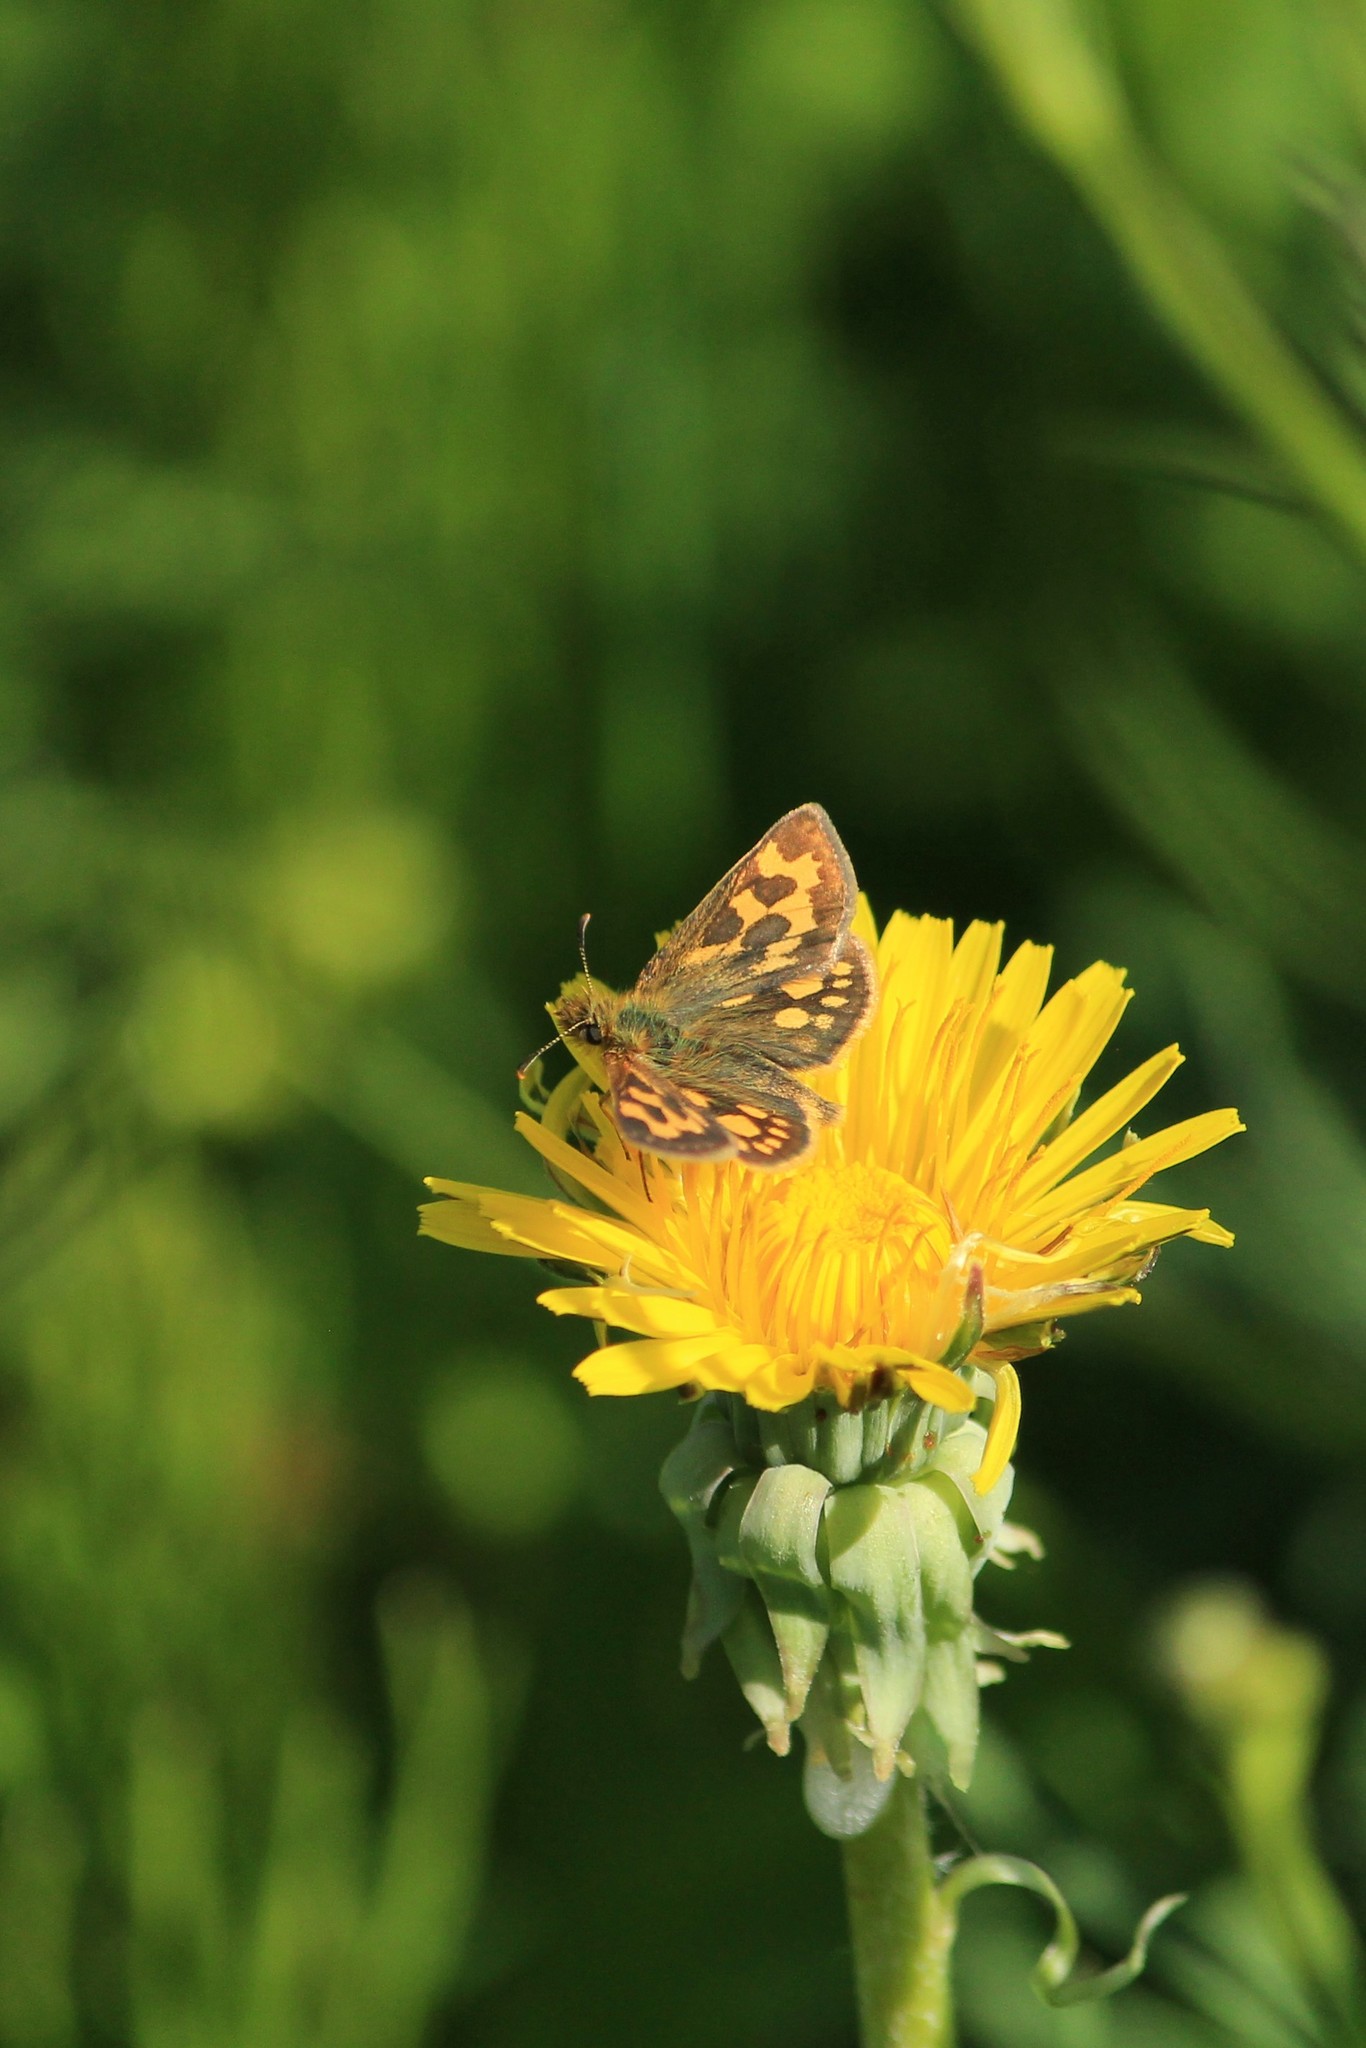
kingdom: Animalia
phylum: Arthropoda
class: Insecta
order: Lepidoptera
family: Hesperiidae
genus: Carterocephalus
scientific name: Carterocephalus silvicola
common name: Northern chequered skipper
